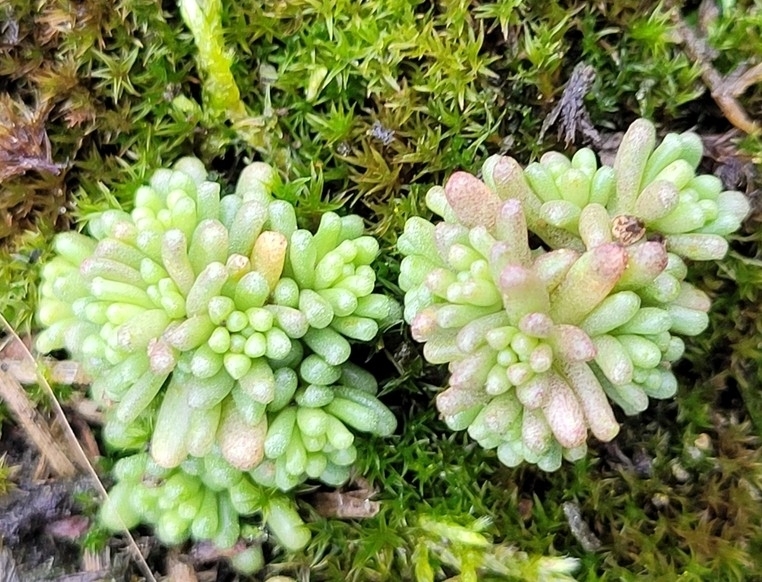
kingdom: Plantae
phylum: Tracheophyta
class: Magnoliopsida
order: Saxifragales
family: Crassulaceae
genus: Sedum
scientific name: Sedum annuum
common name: Annual stonecrop
